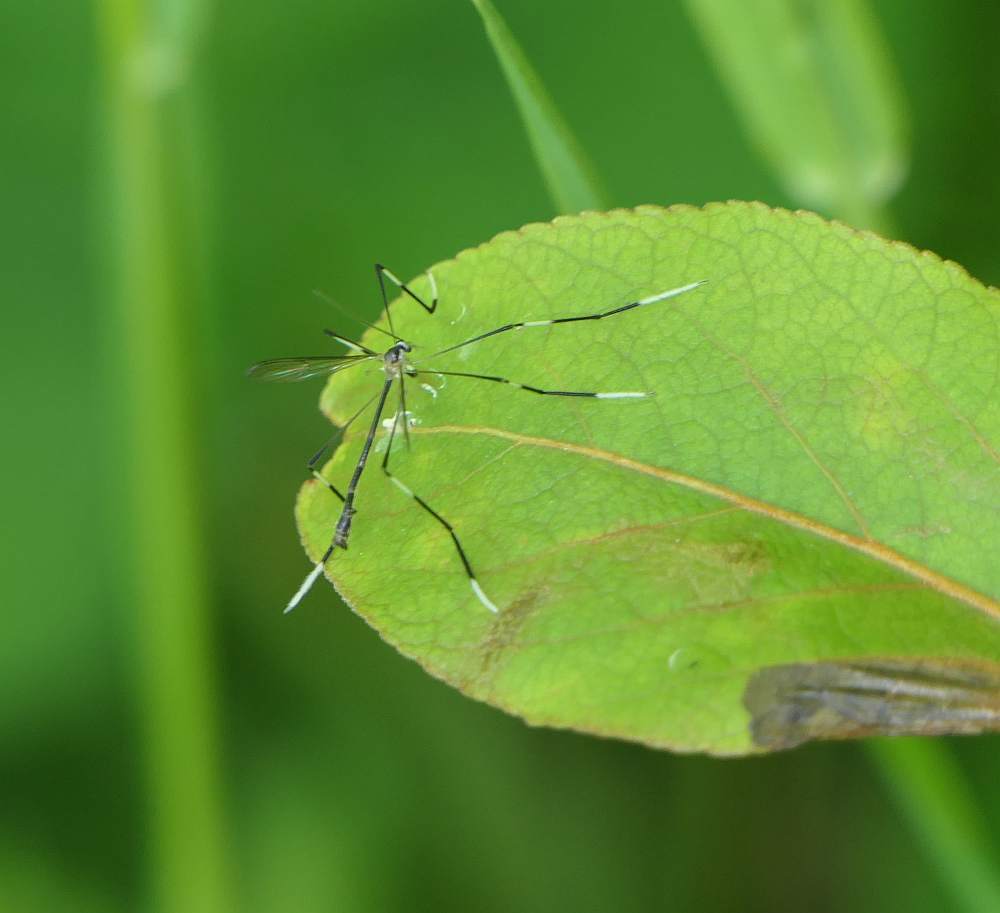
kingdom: Animalia
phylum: Arthropoda
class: Insecta
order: Diptera
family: Ptychopteridae
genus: Bittacomorphella
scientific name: Bittacomorphella jonesi
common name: Pygmy phantom crane fly
